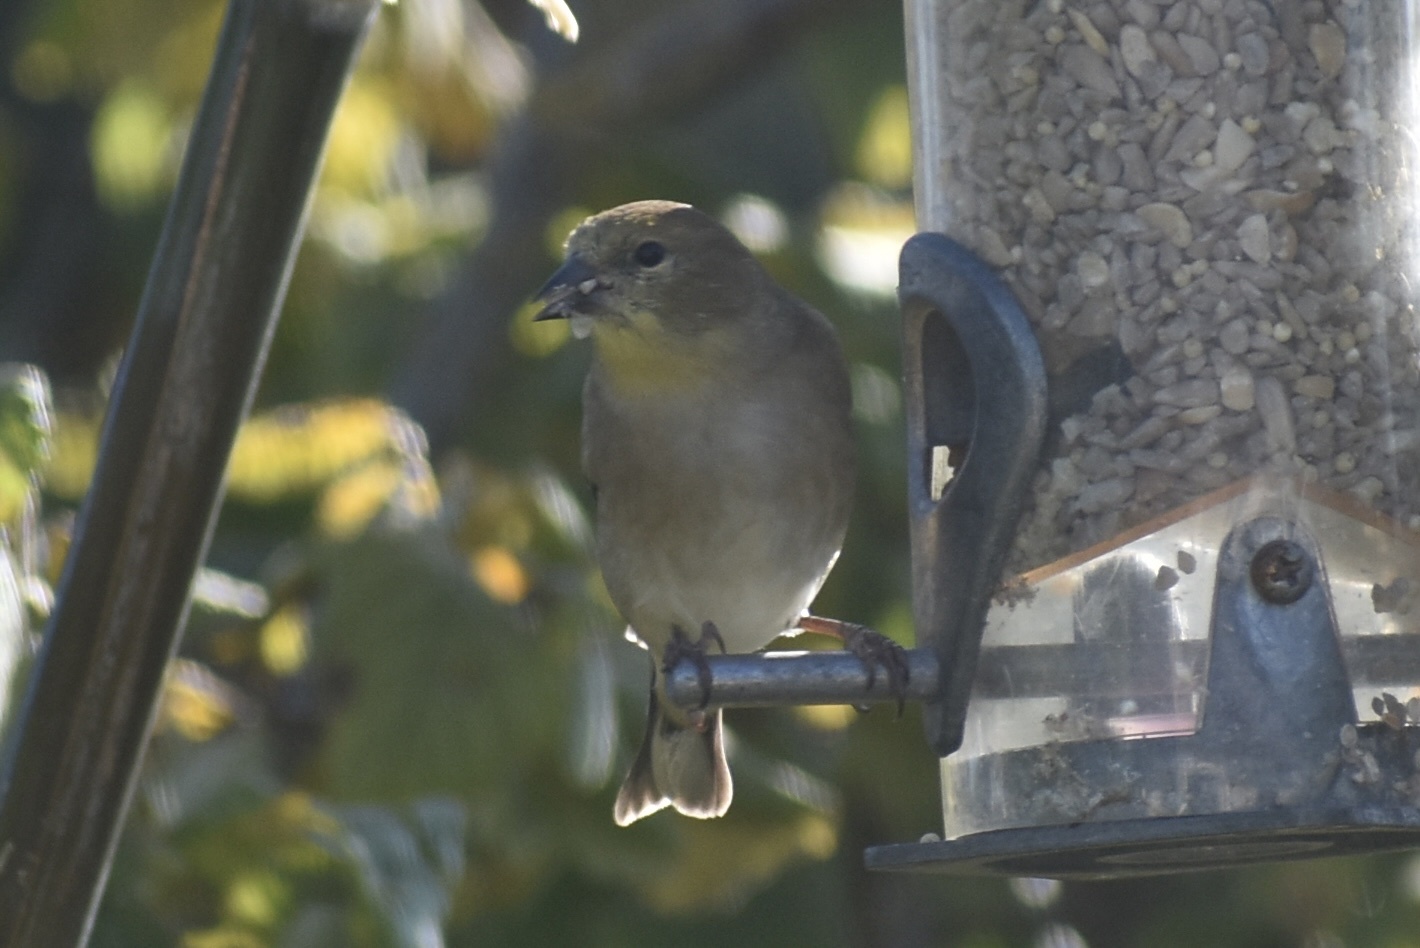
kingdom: Animalia
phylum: Chordata
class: Aves
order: Passeriformes
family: Fringillidae
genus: Spinus
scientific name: Spinus tristis
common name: American goldfinch
